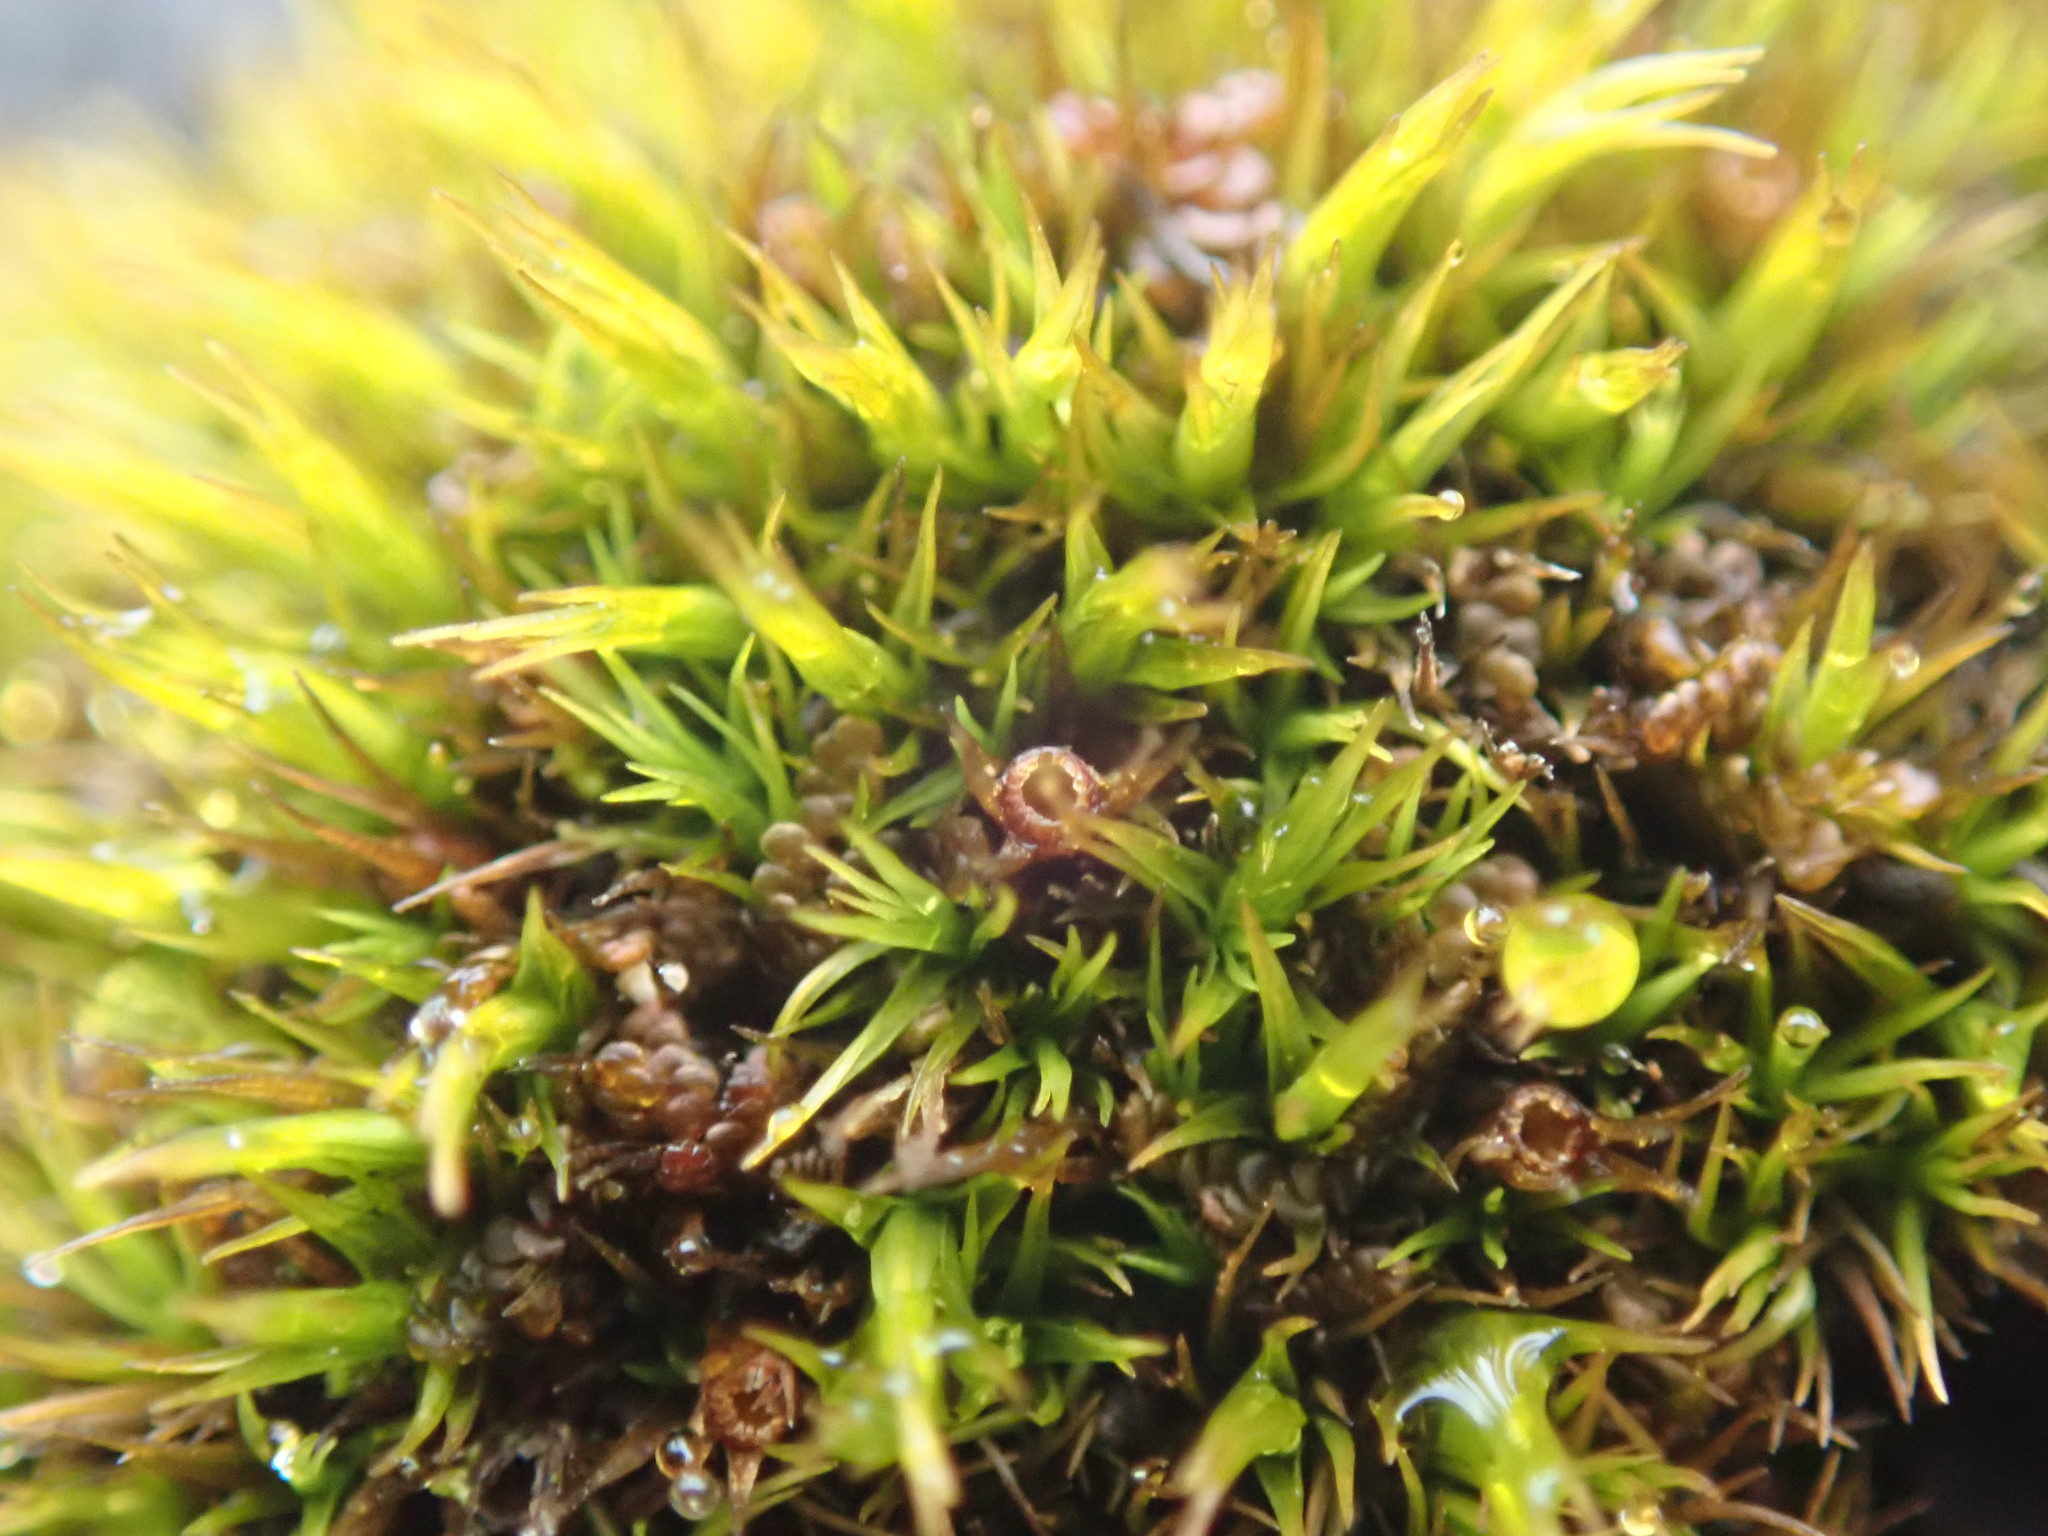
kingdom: Plantae
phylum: Bryophyta
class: Bryopsida
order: Grimmiales
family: Grimmiaceae
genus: Schistidium
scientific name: Schistidium maritimum
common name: Seaside bloom moss
